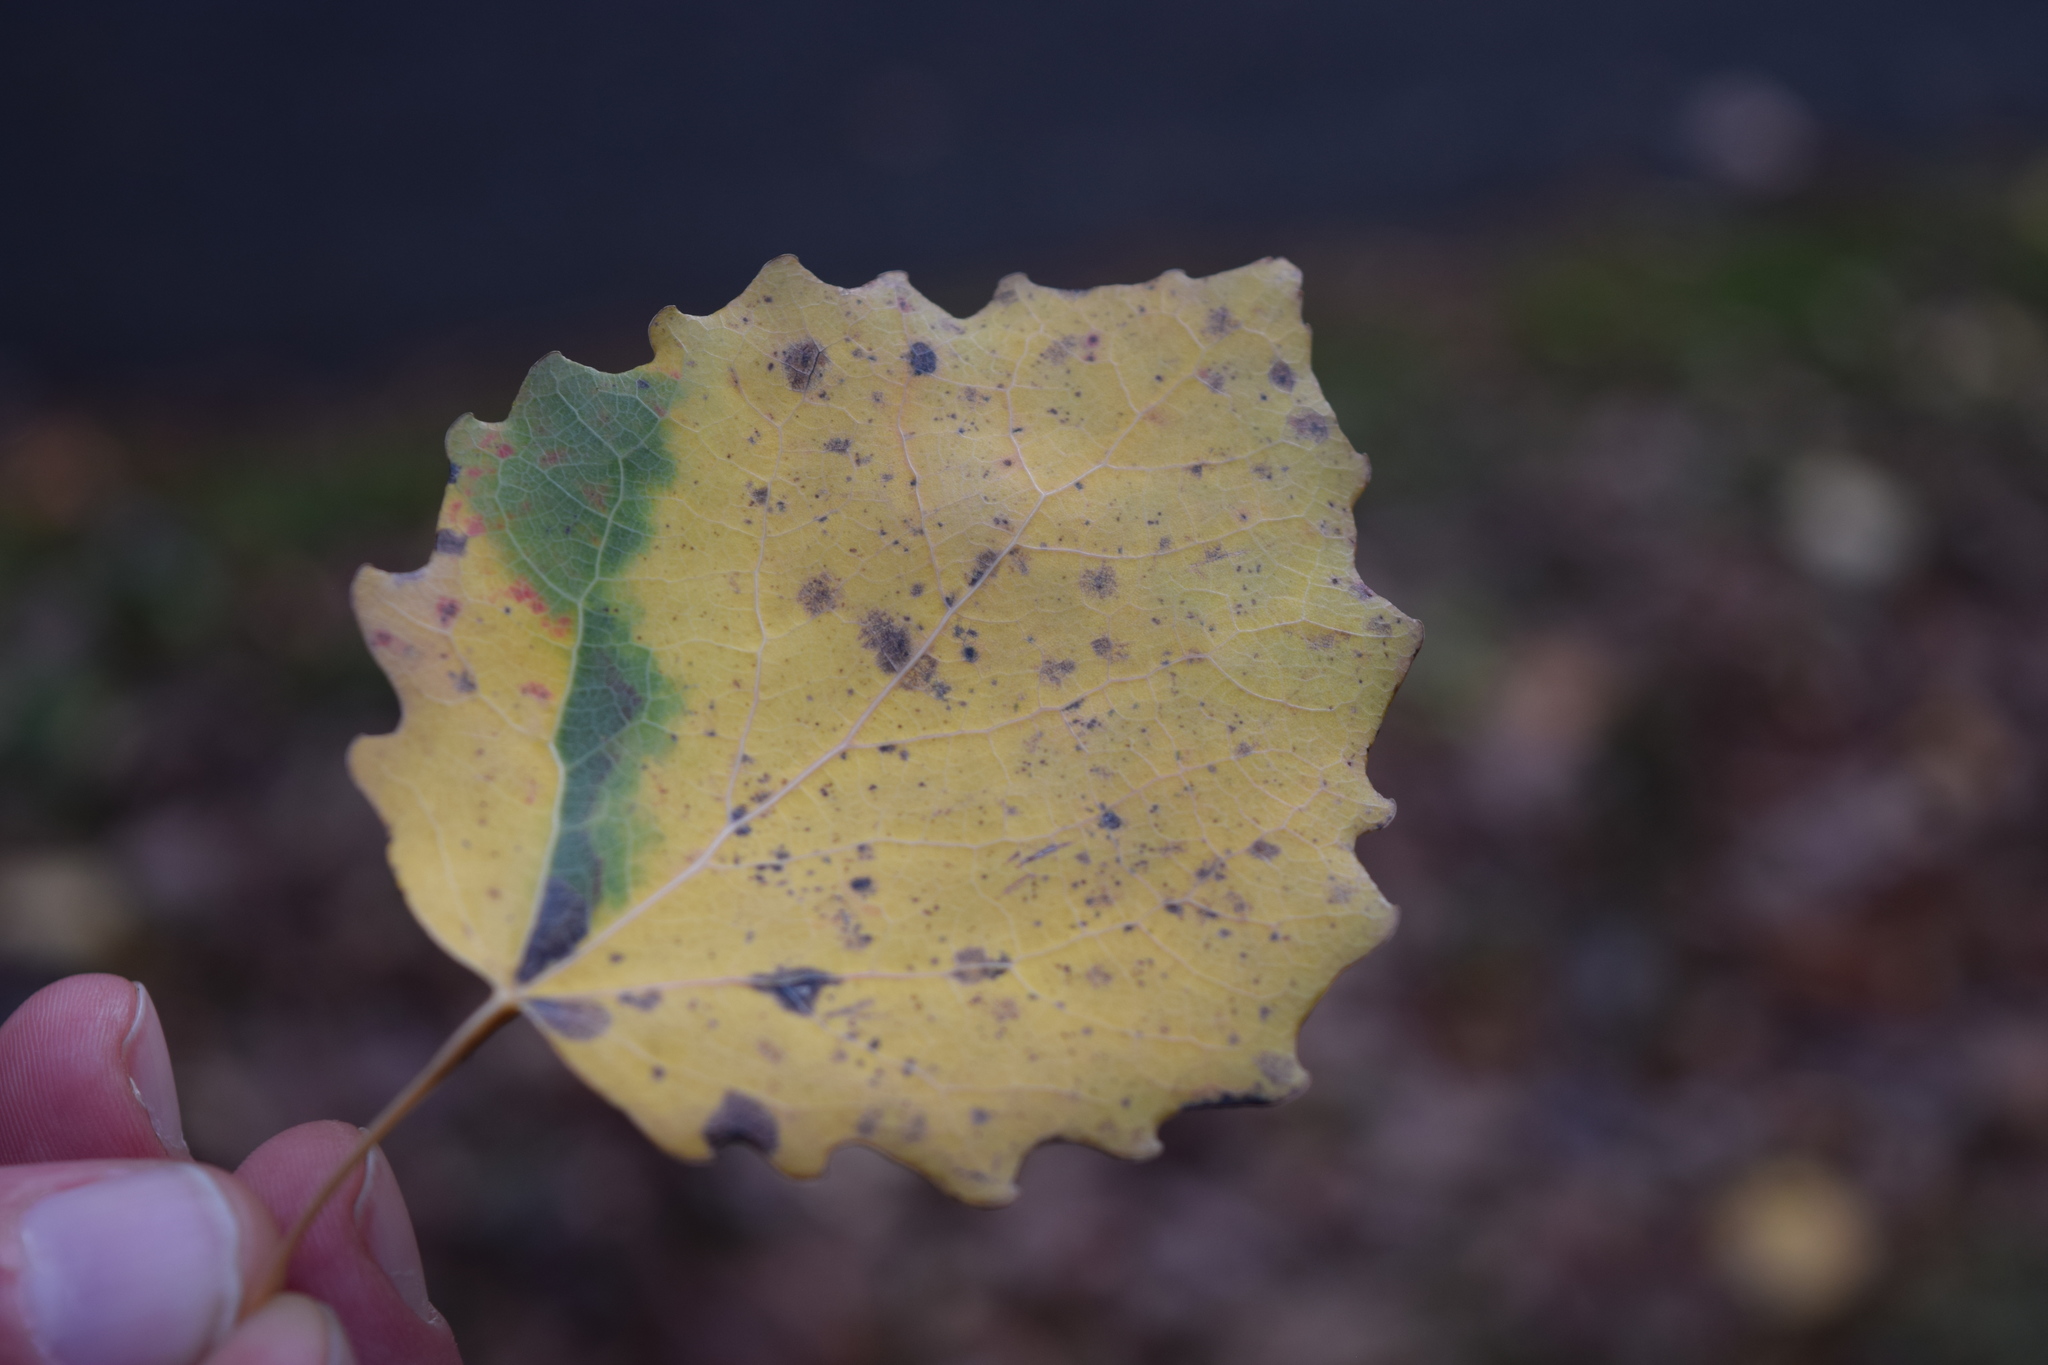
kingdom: Plantae
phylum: Tracheophyta
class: Magnoliopsida
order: Malpighiales
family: Salicaceae
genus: Populus
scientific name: Populus tremula
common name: European aspen
